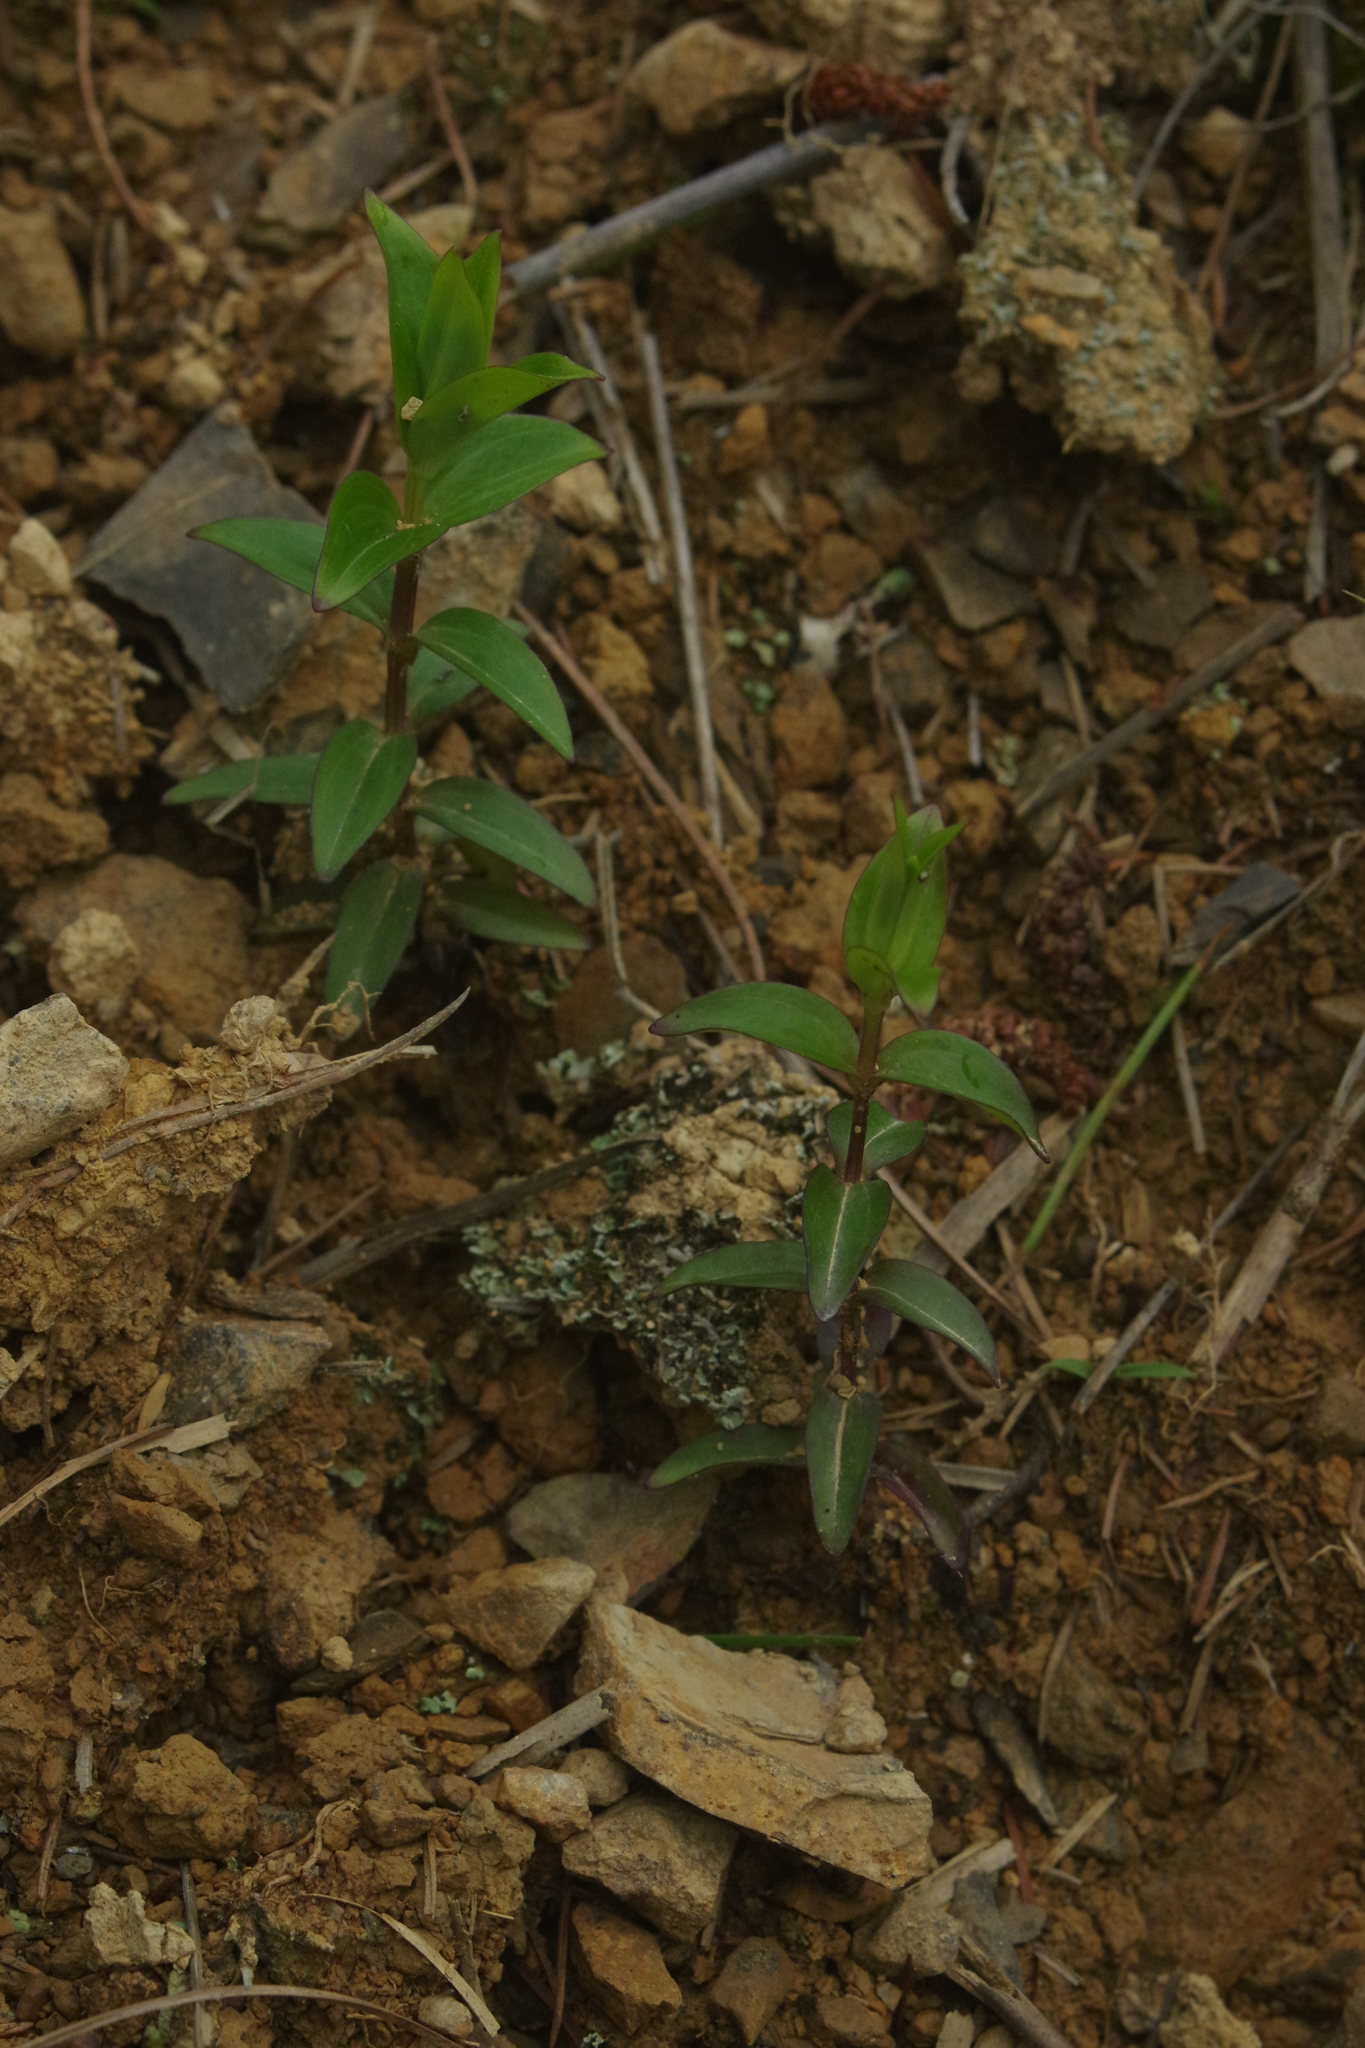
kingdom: Plantae
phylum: Tracheophyta
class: Magnoliopsida
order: Gentianales
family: Gentianaceae
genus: Swertia
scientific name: Swertia macrosperma
